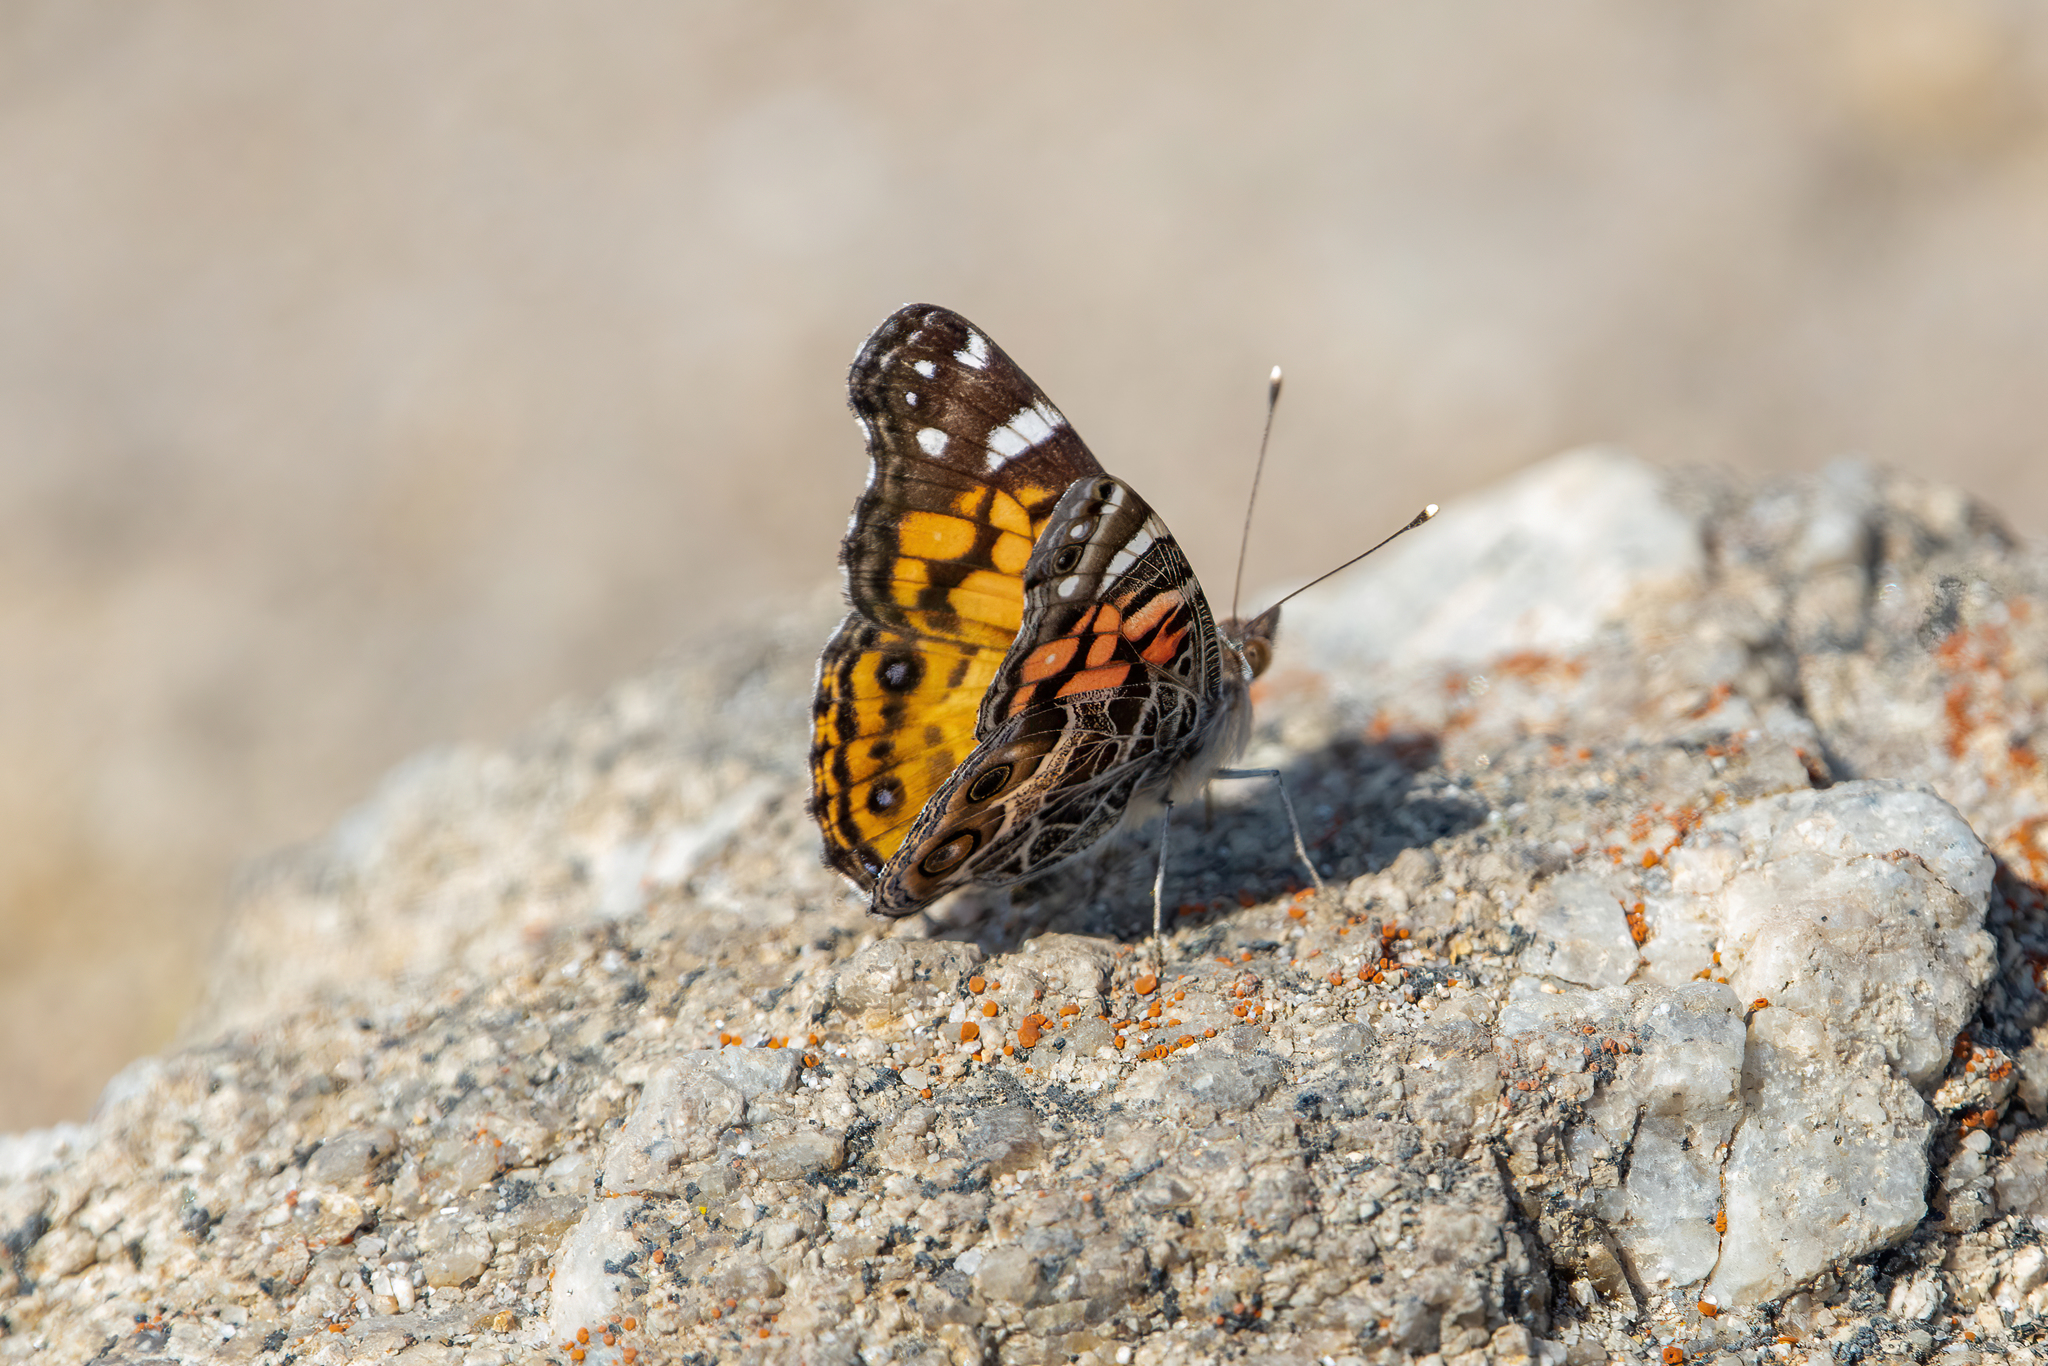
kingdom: Animalia
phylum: Arthropoda
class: Insecta
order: Lepidoptera
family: Nymphalidae
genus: Vanessa
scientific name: Vanessa virginiensis
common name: American lady
